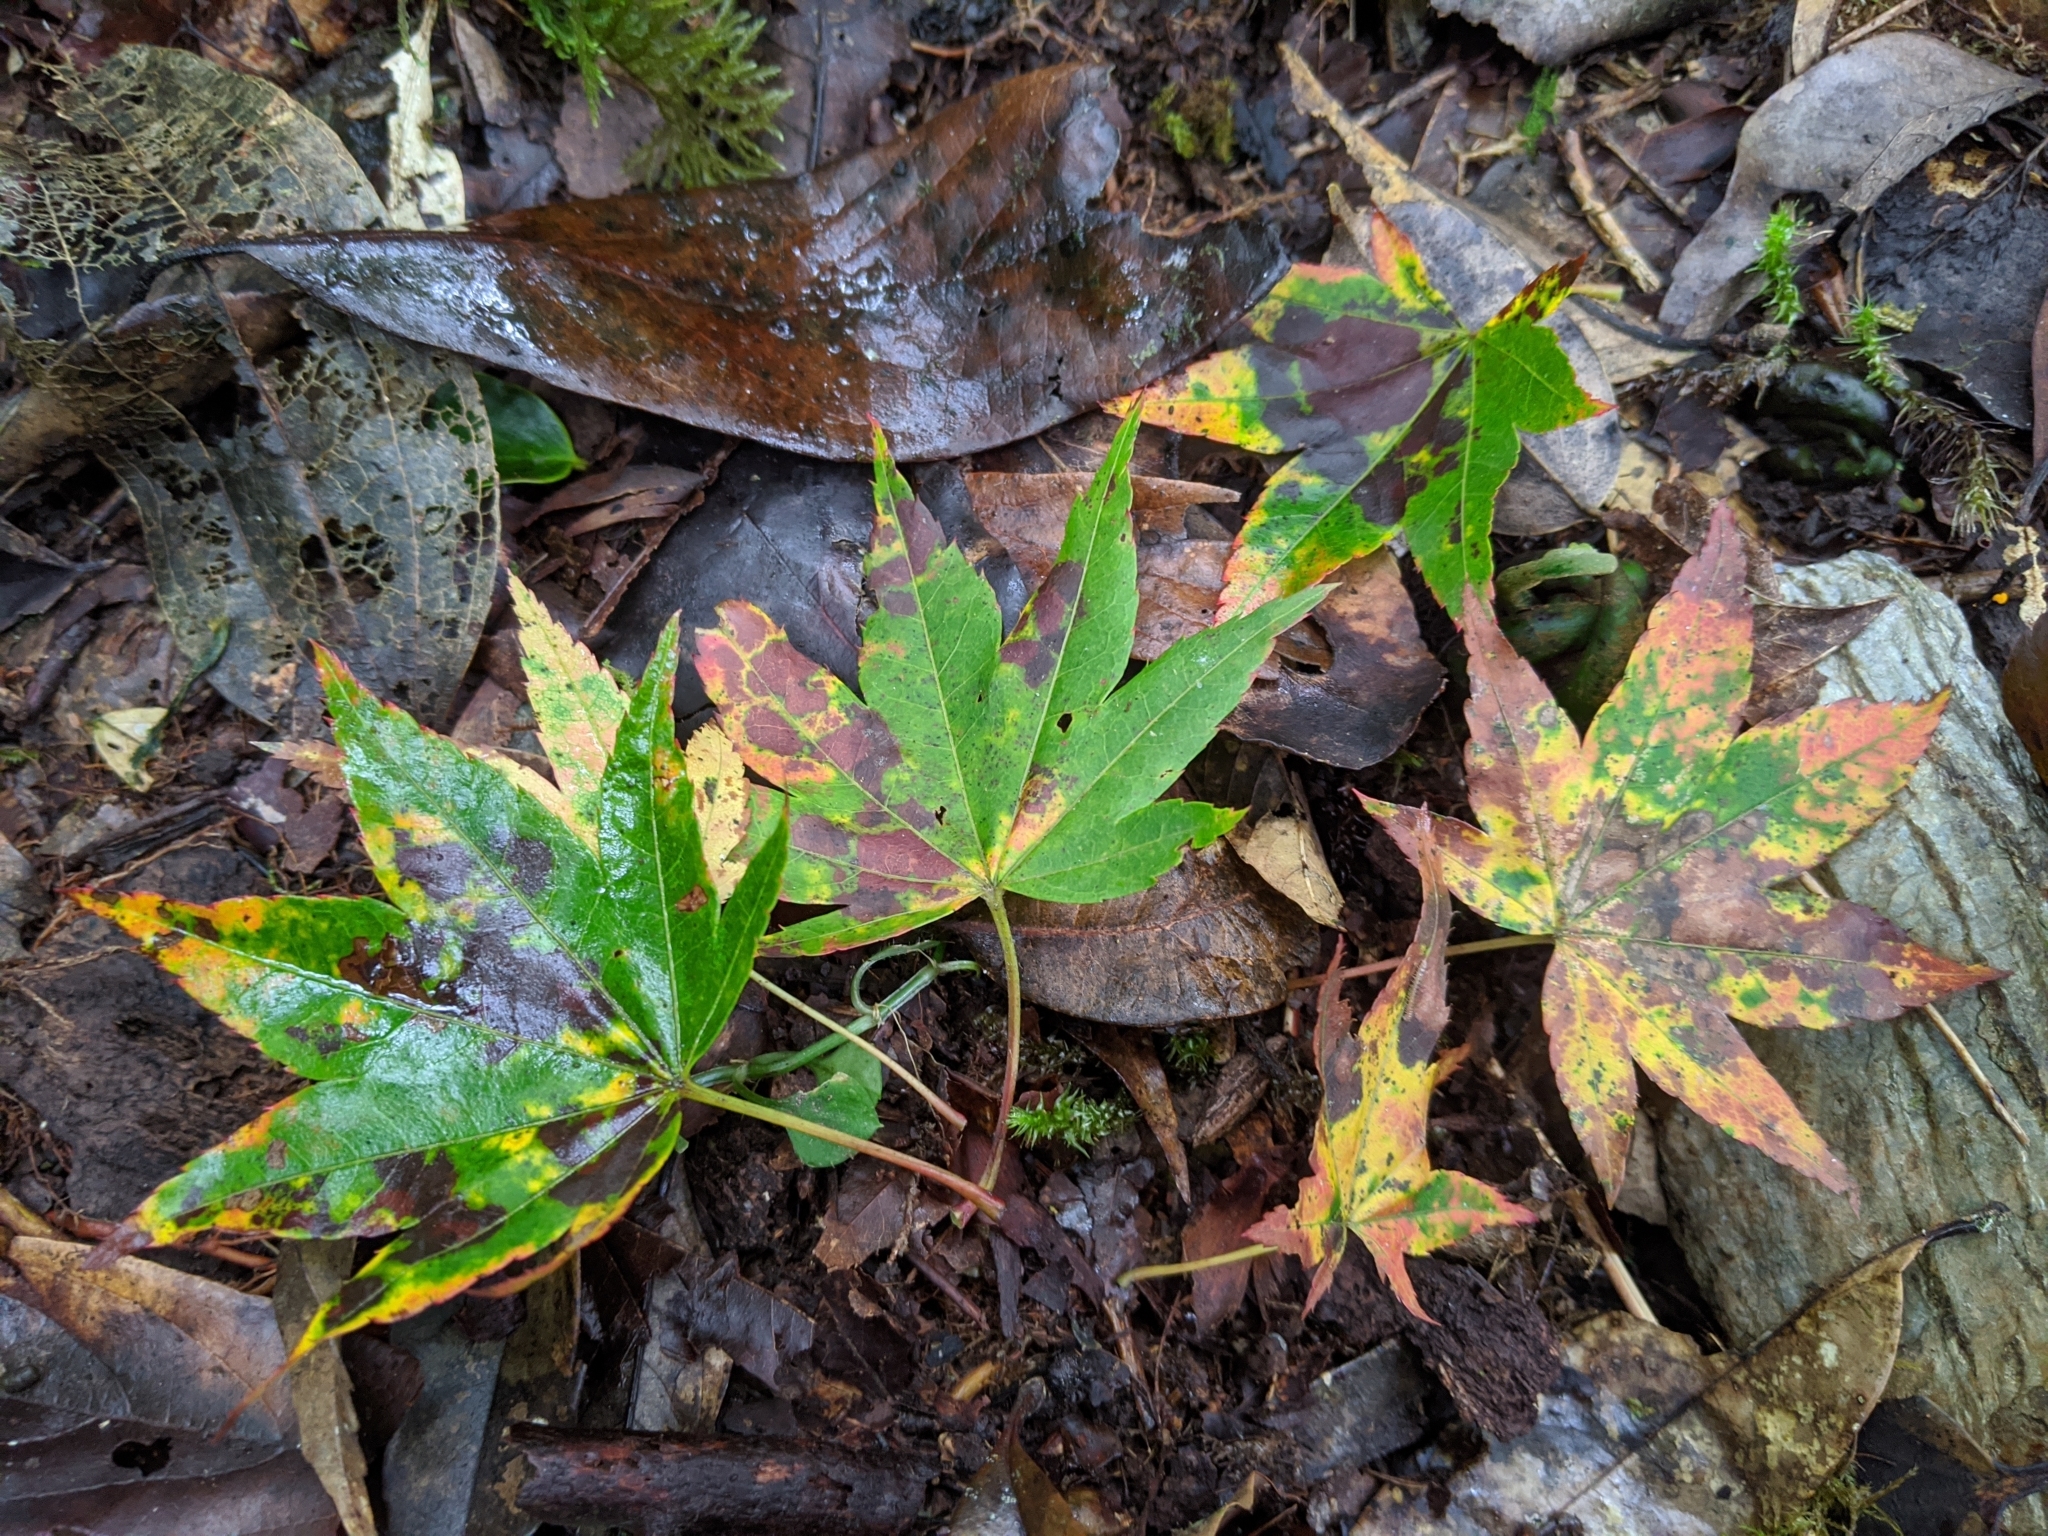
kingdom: Plantae
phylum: Tracheophyta
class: Magnoliopsida
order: Sapindales
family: Sapindaceae
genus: Acer
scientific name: Acer palmatum
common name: Japanese maple
